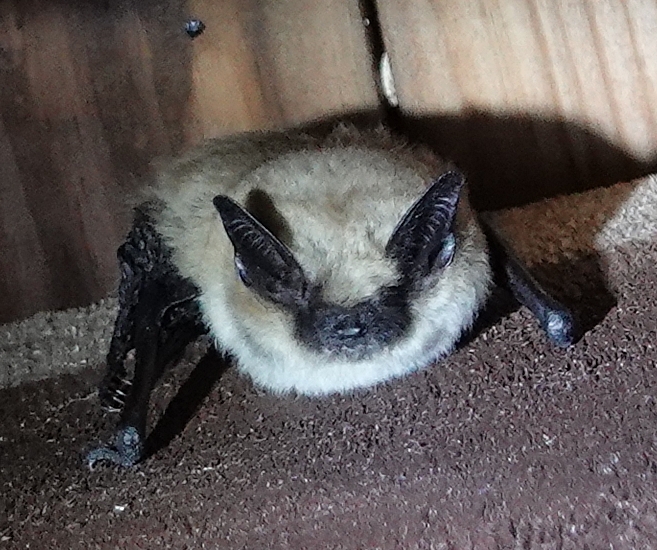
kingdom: Animalia
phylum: Chordata
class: Mammalia
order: Chiroptera
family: Vespertilionidae
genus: Myotis
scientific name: Myotis ciliolabrum
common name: Western small-footed myotis
